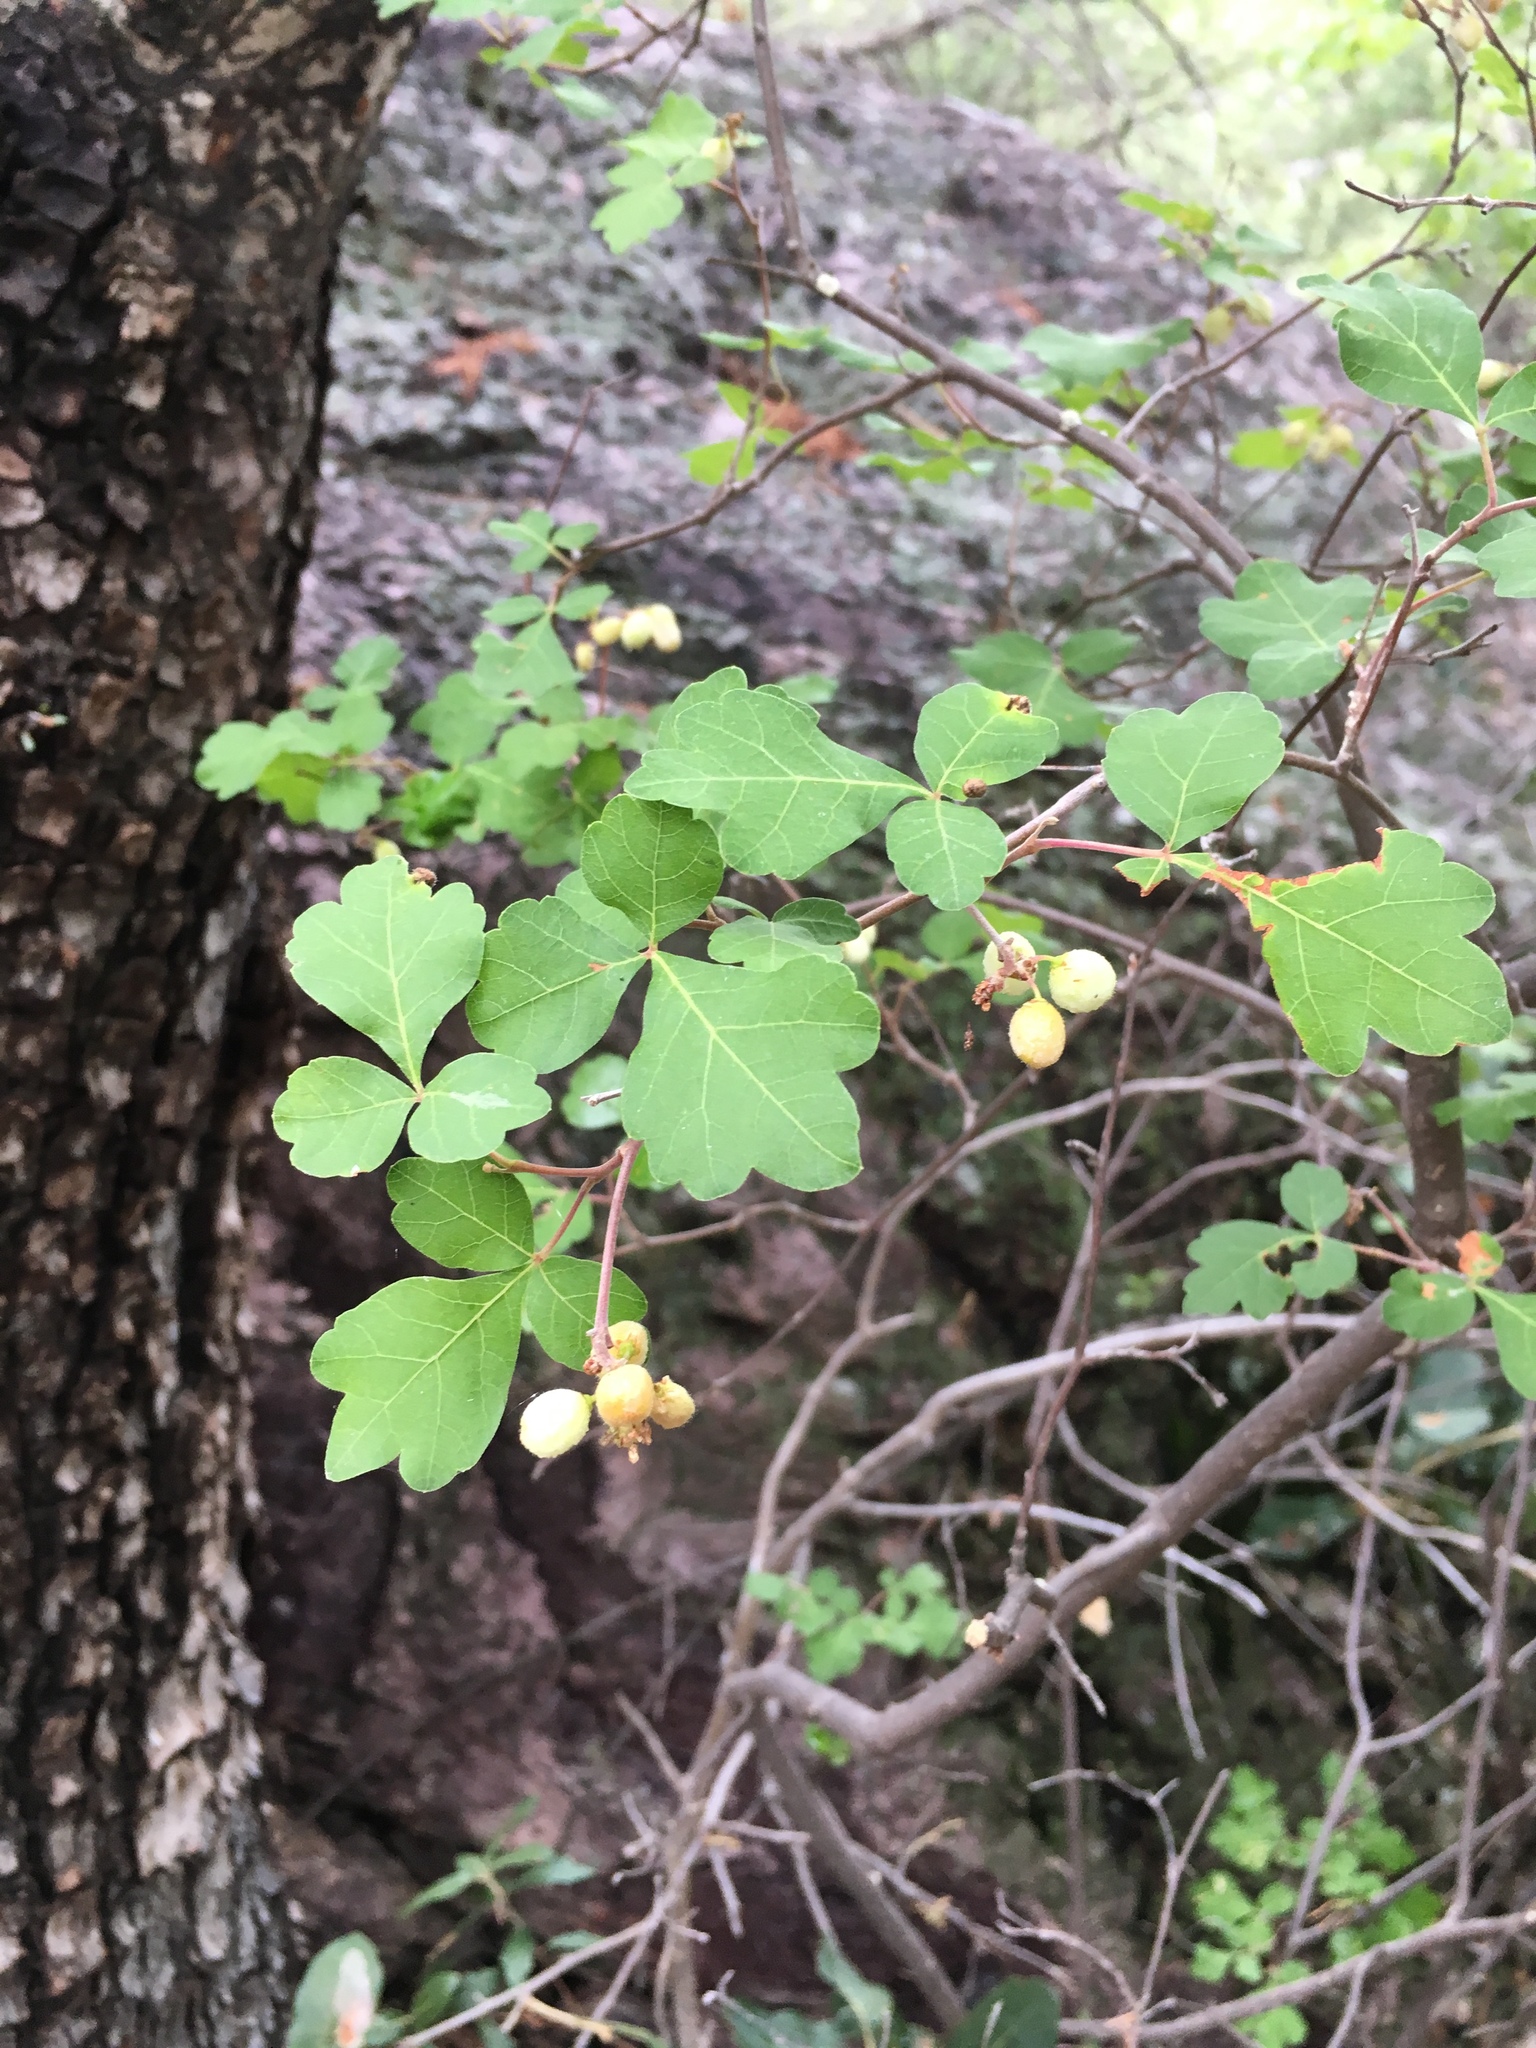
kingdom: Plantae
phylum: Tracheophyta
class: Magnoliopsida
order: Sapindales
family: Anacardiaceae
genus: Rhus
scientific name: Rhus aromatica
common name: Aromatic sumac
